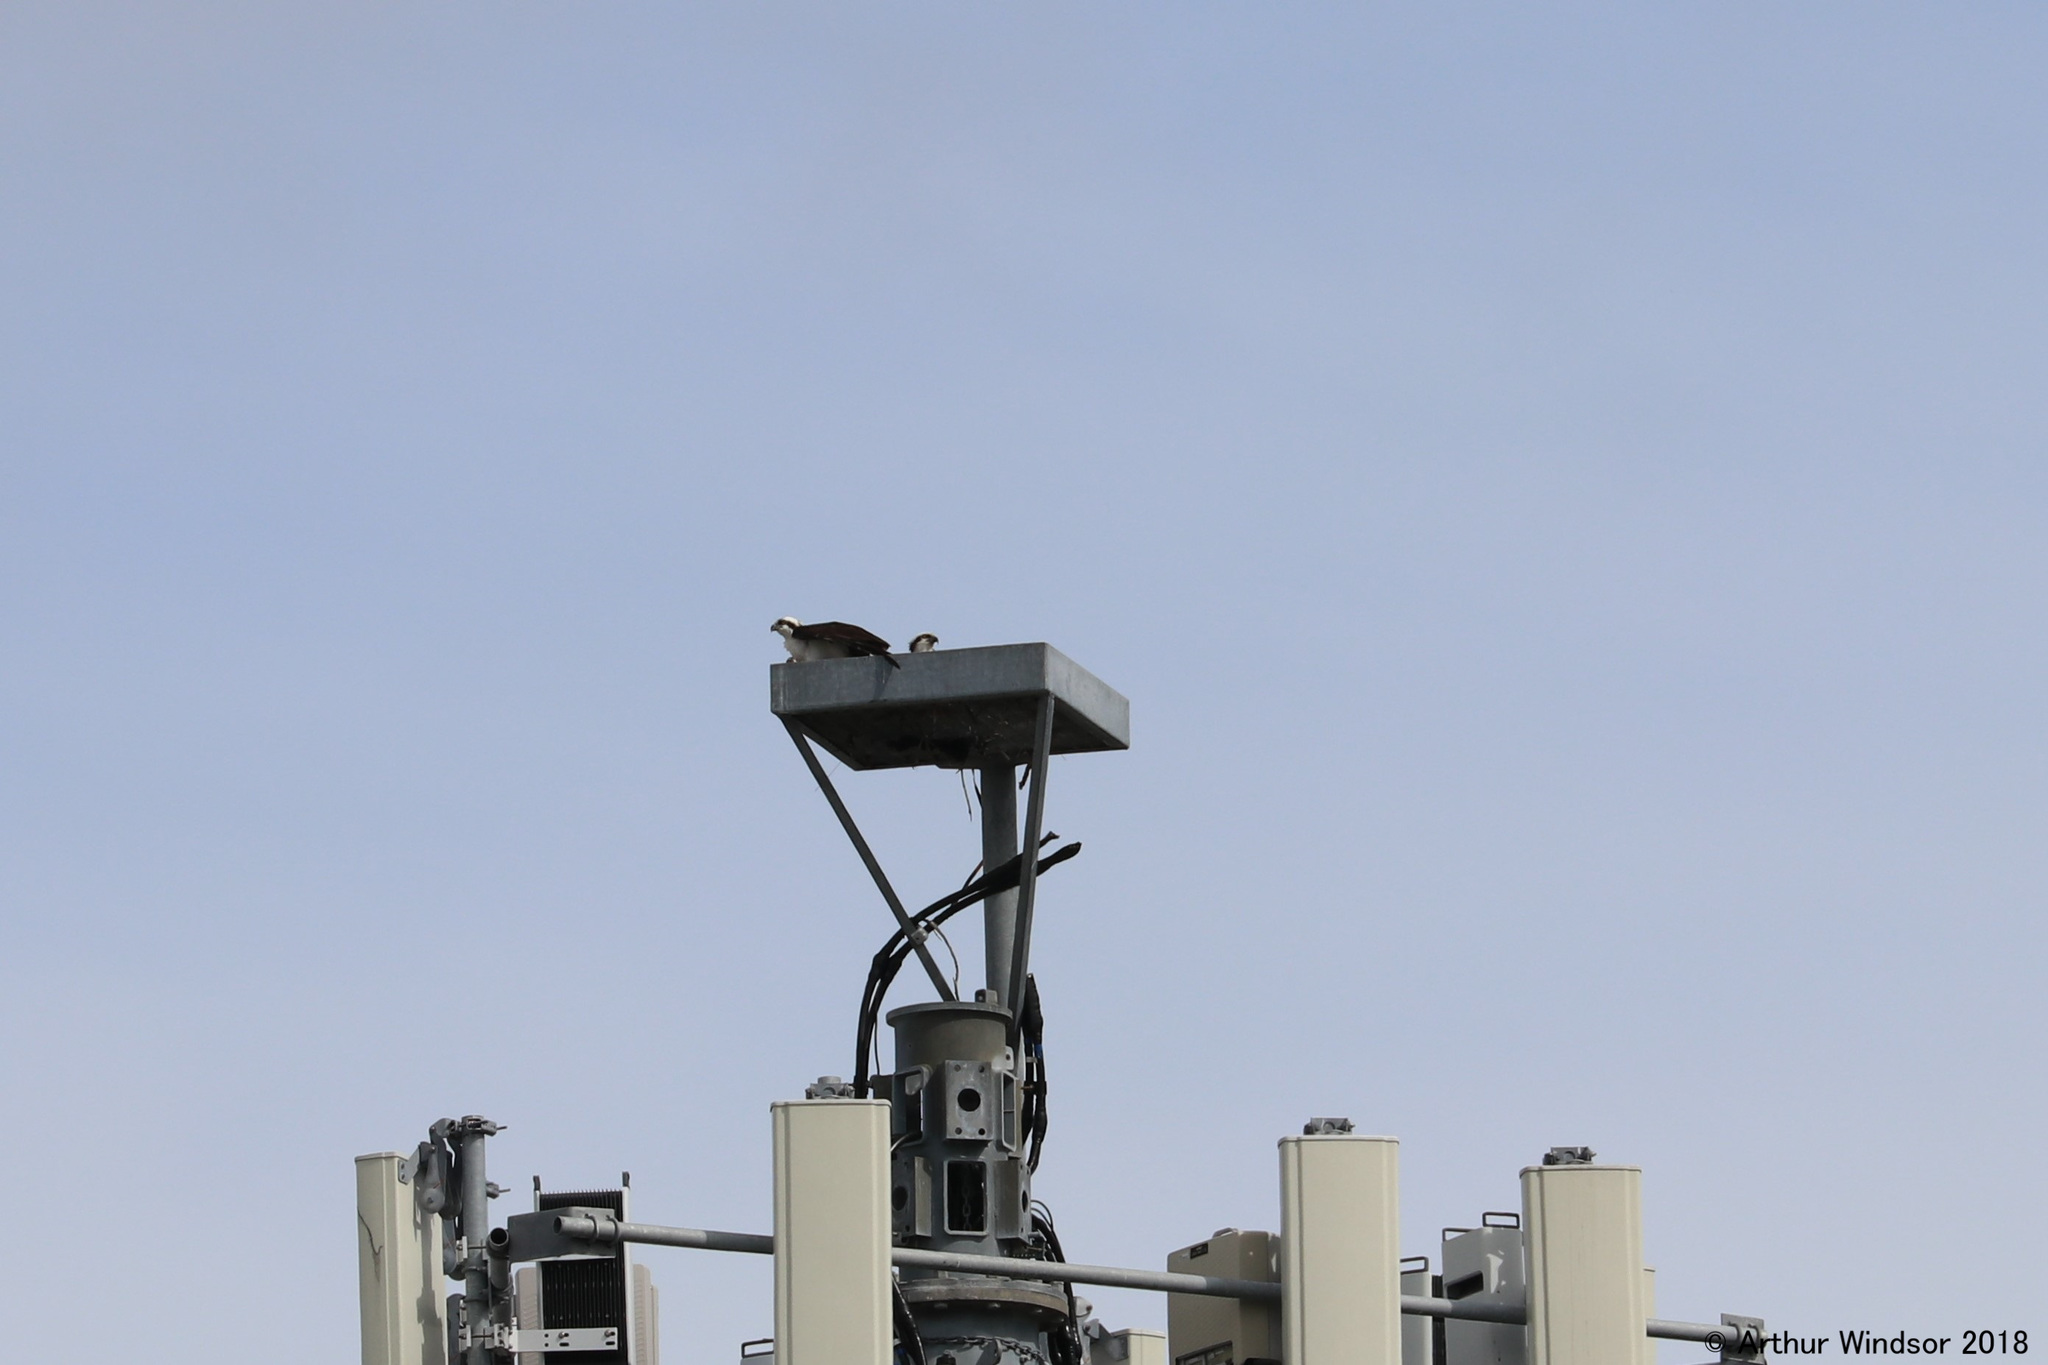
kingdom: Animalia
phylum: Chordata
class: Aves
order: Accipitriformes
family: Pandionidae
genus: Pandion
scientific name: Pandion haliaetus
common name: Osprey
